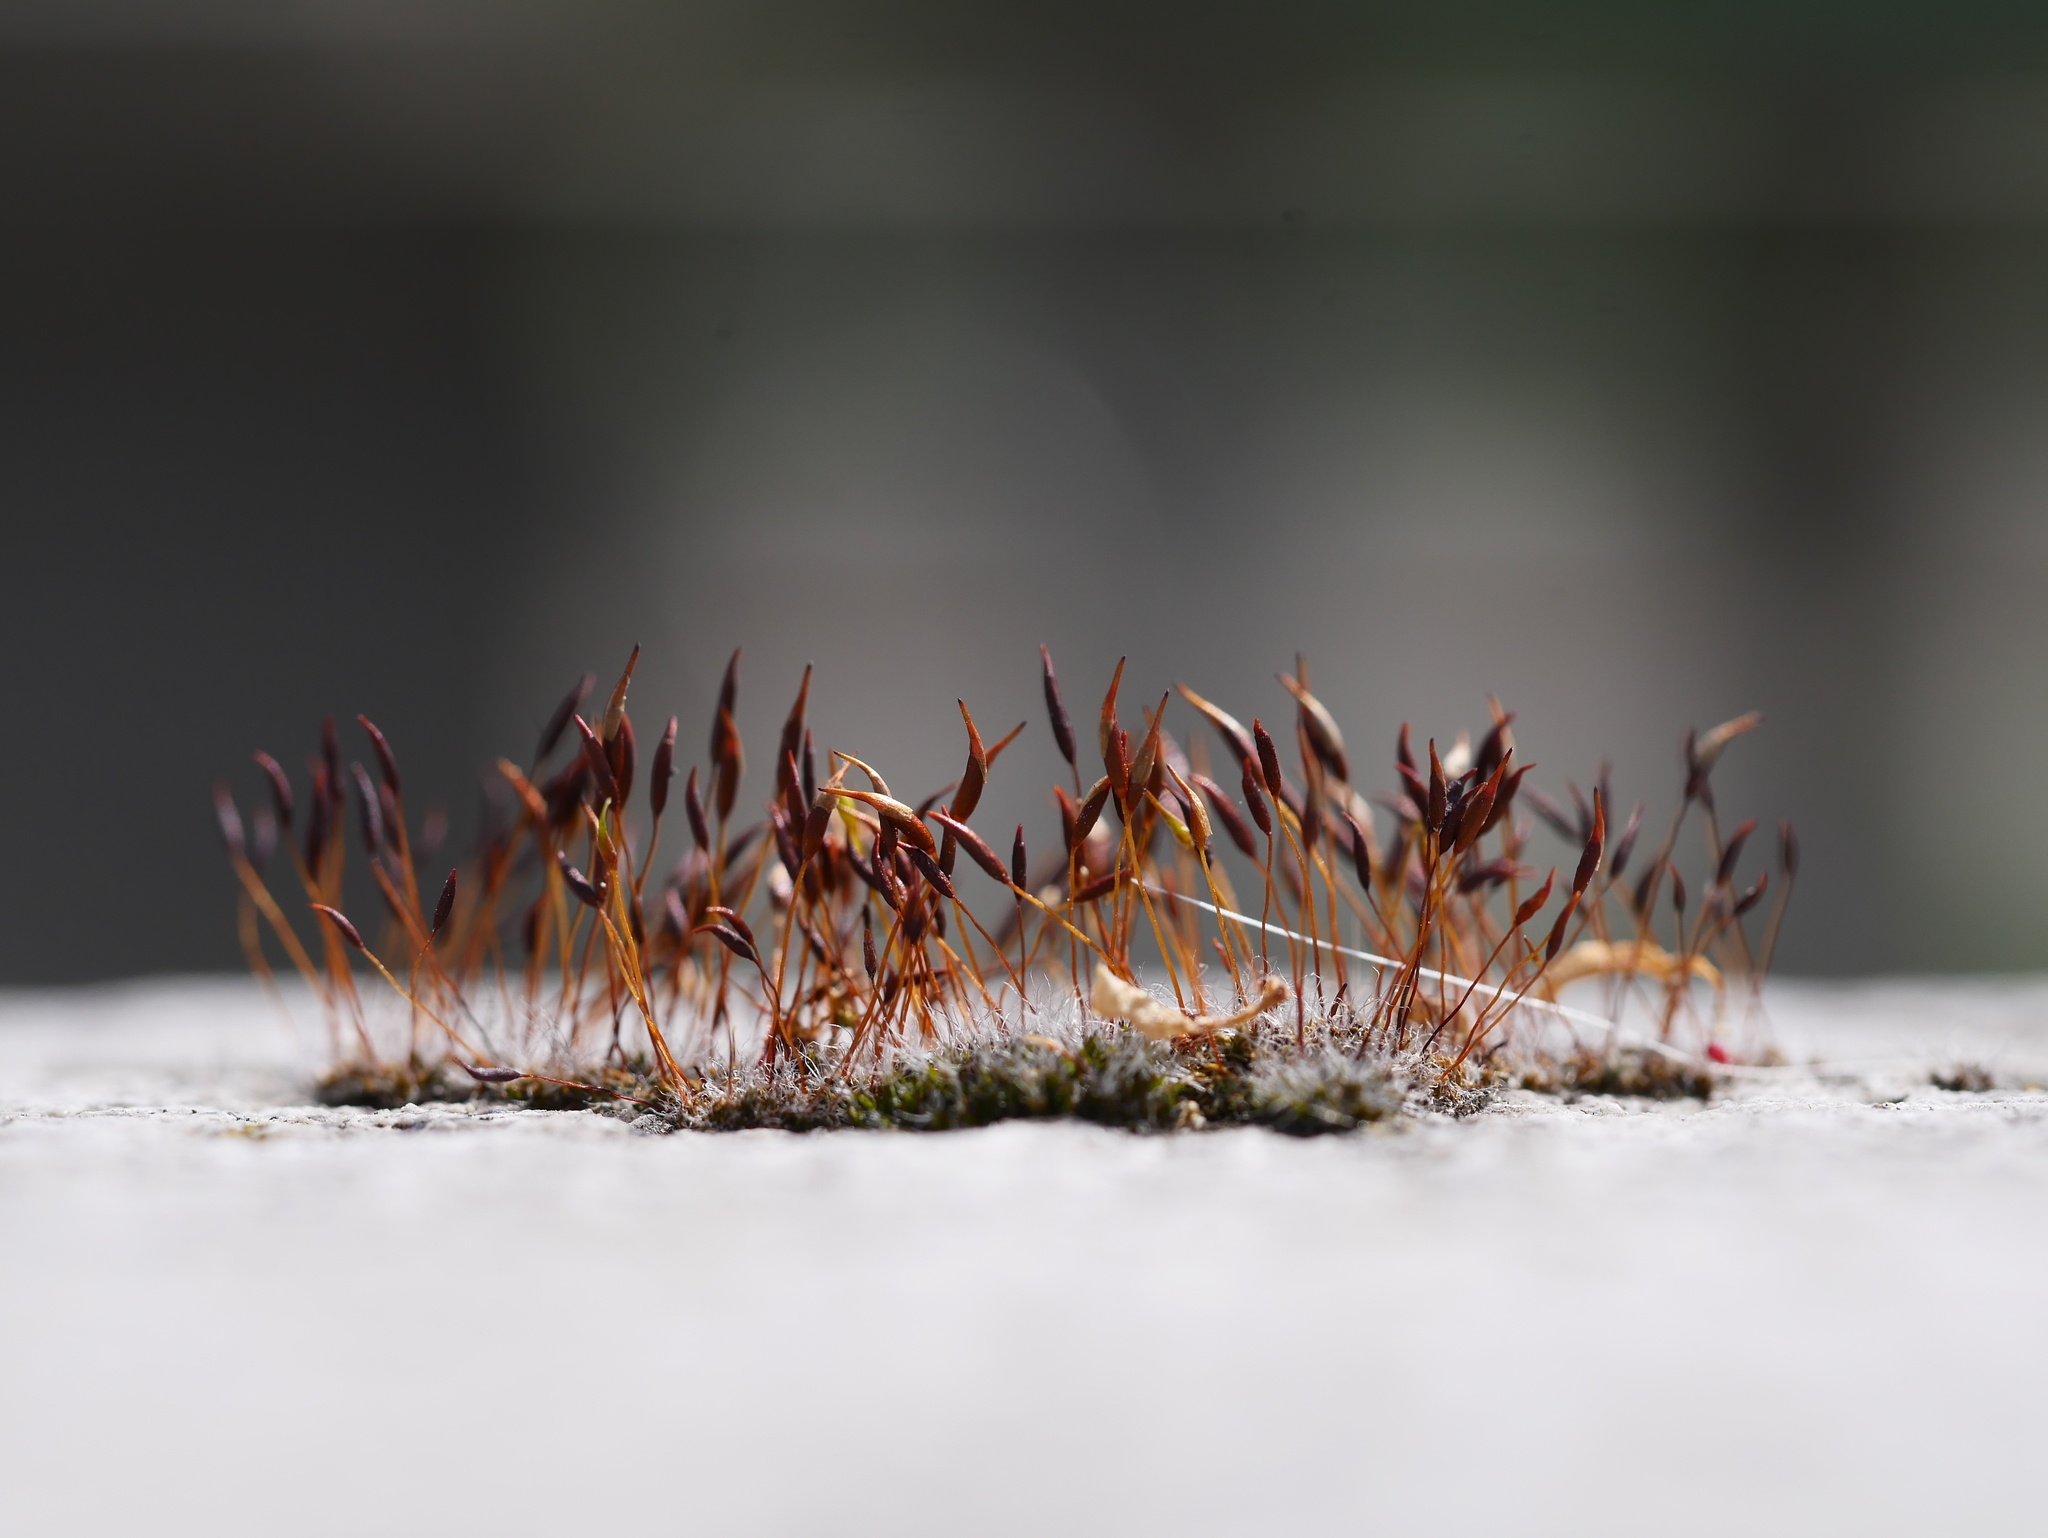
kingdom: Plantae
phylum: Bryophyta
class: Bryopsida
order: Pottiales
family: Pottiaceae
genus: Tortula
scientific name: Tortula muralis
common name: Wall screw-moss
